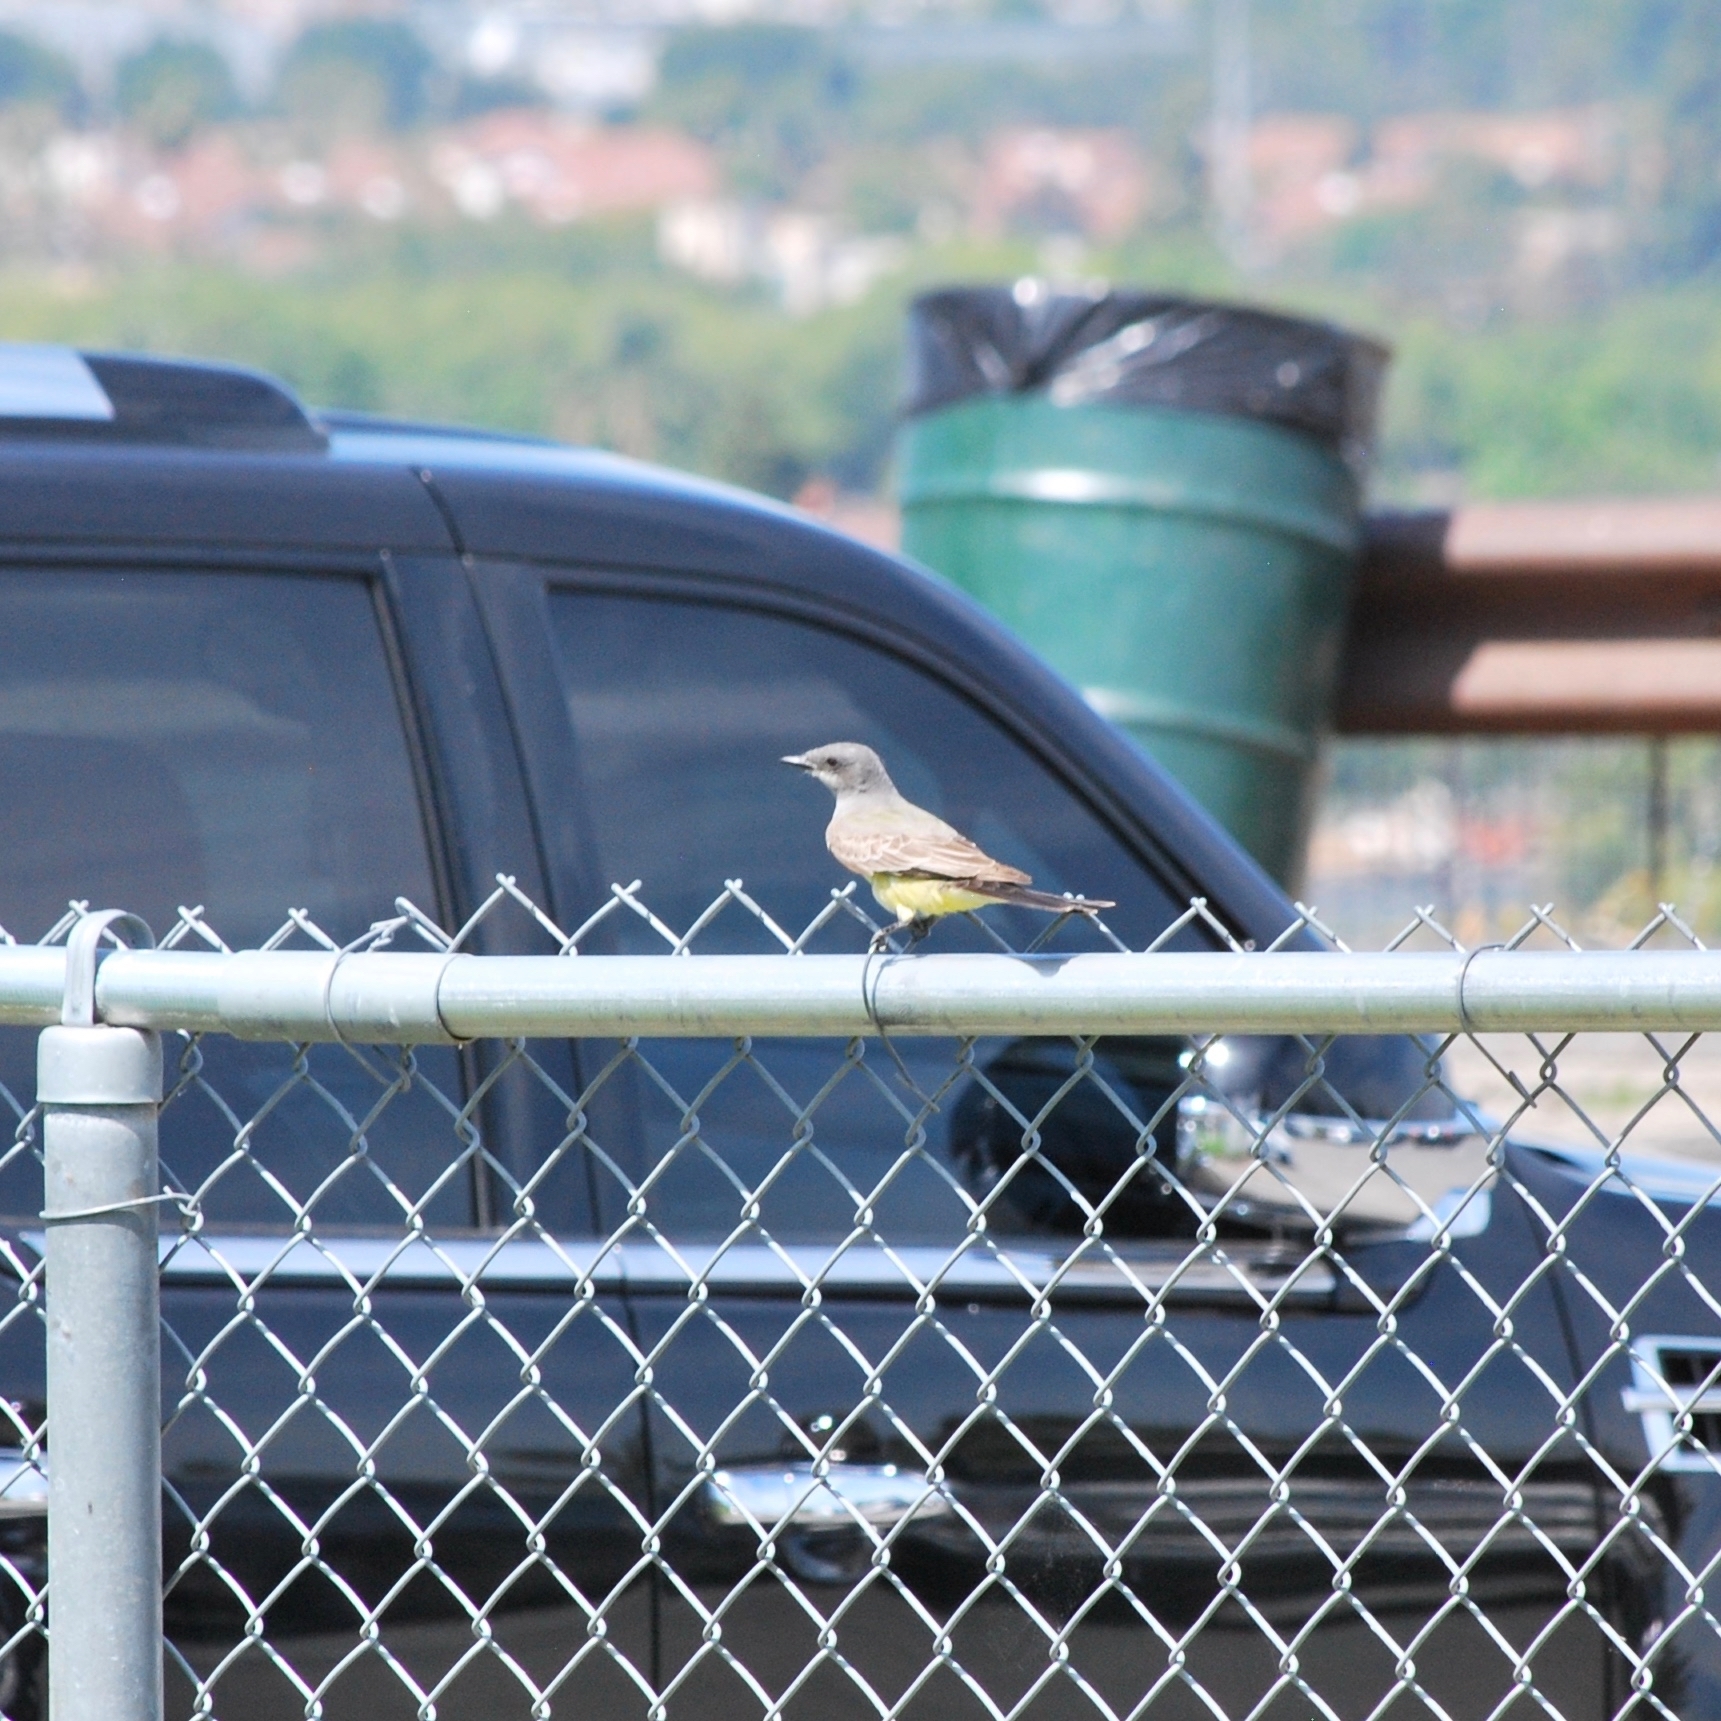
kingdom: Animalia
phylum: Chordata
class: Aves
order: Passeriformes
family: Tyrannidae
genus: Tyrannus
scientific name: Tyrannus vociferans
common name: Cassin's kingbird
